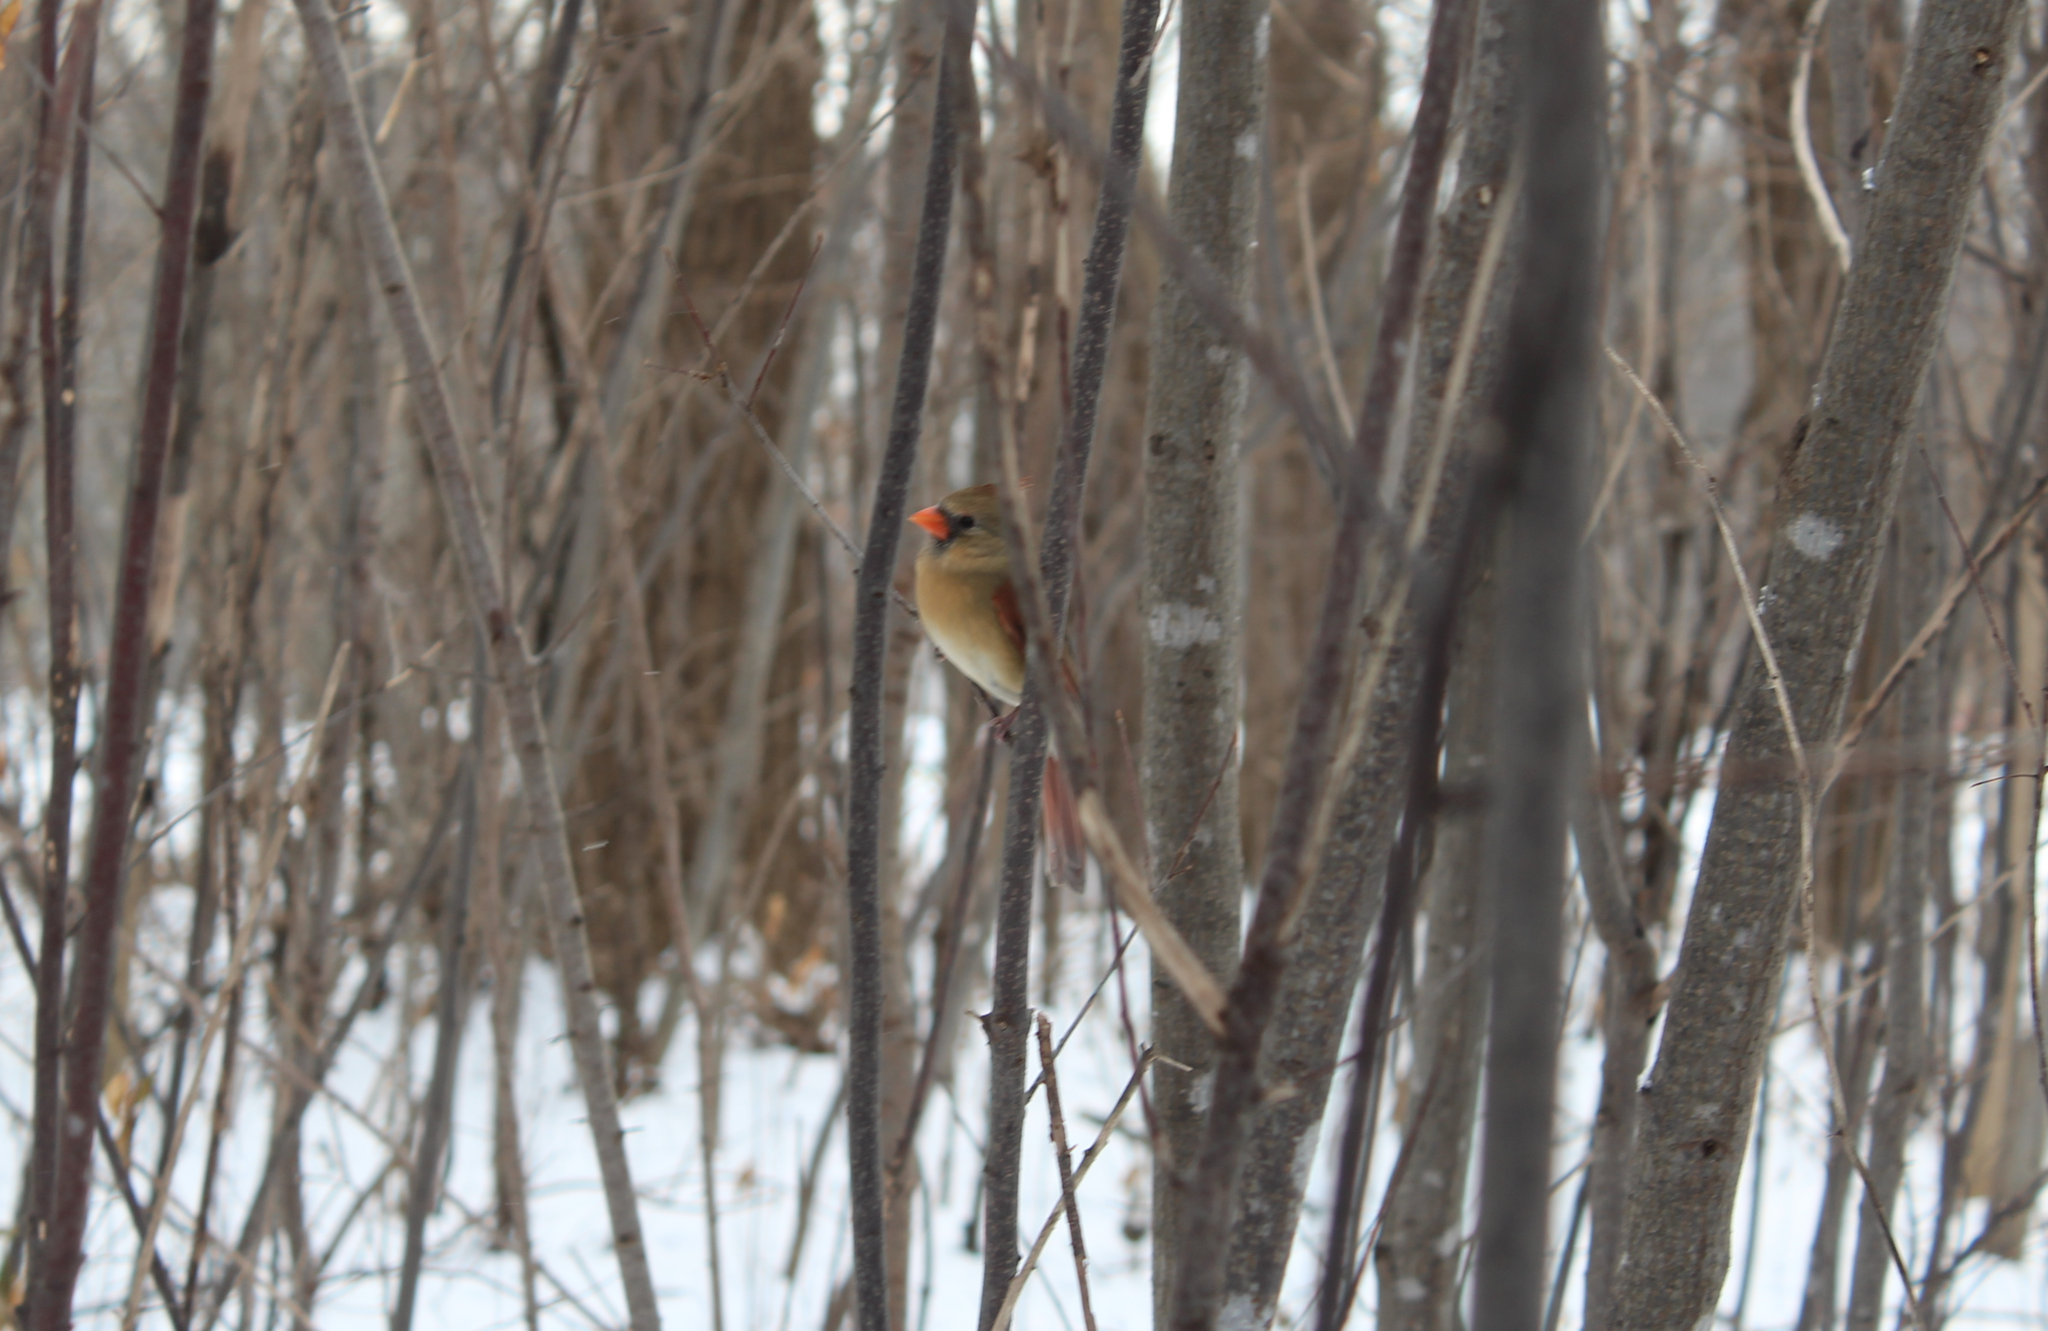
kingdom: Animalia
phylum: Chordata
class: Aves
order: Passeriformes
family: Cardinalidae
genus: Cardinalis
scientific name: Cardinalis cardinalis
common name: Northern cardinal
